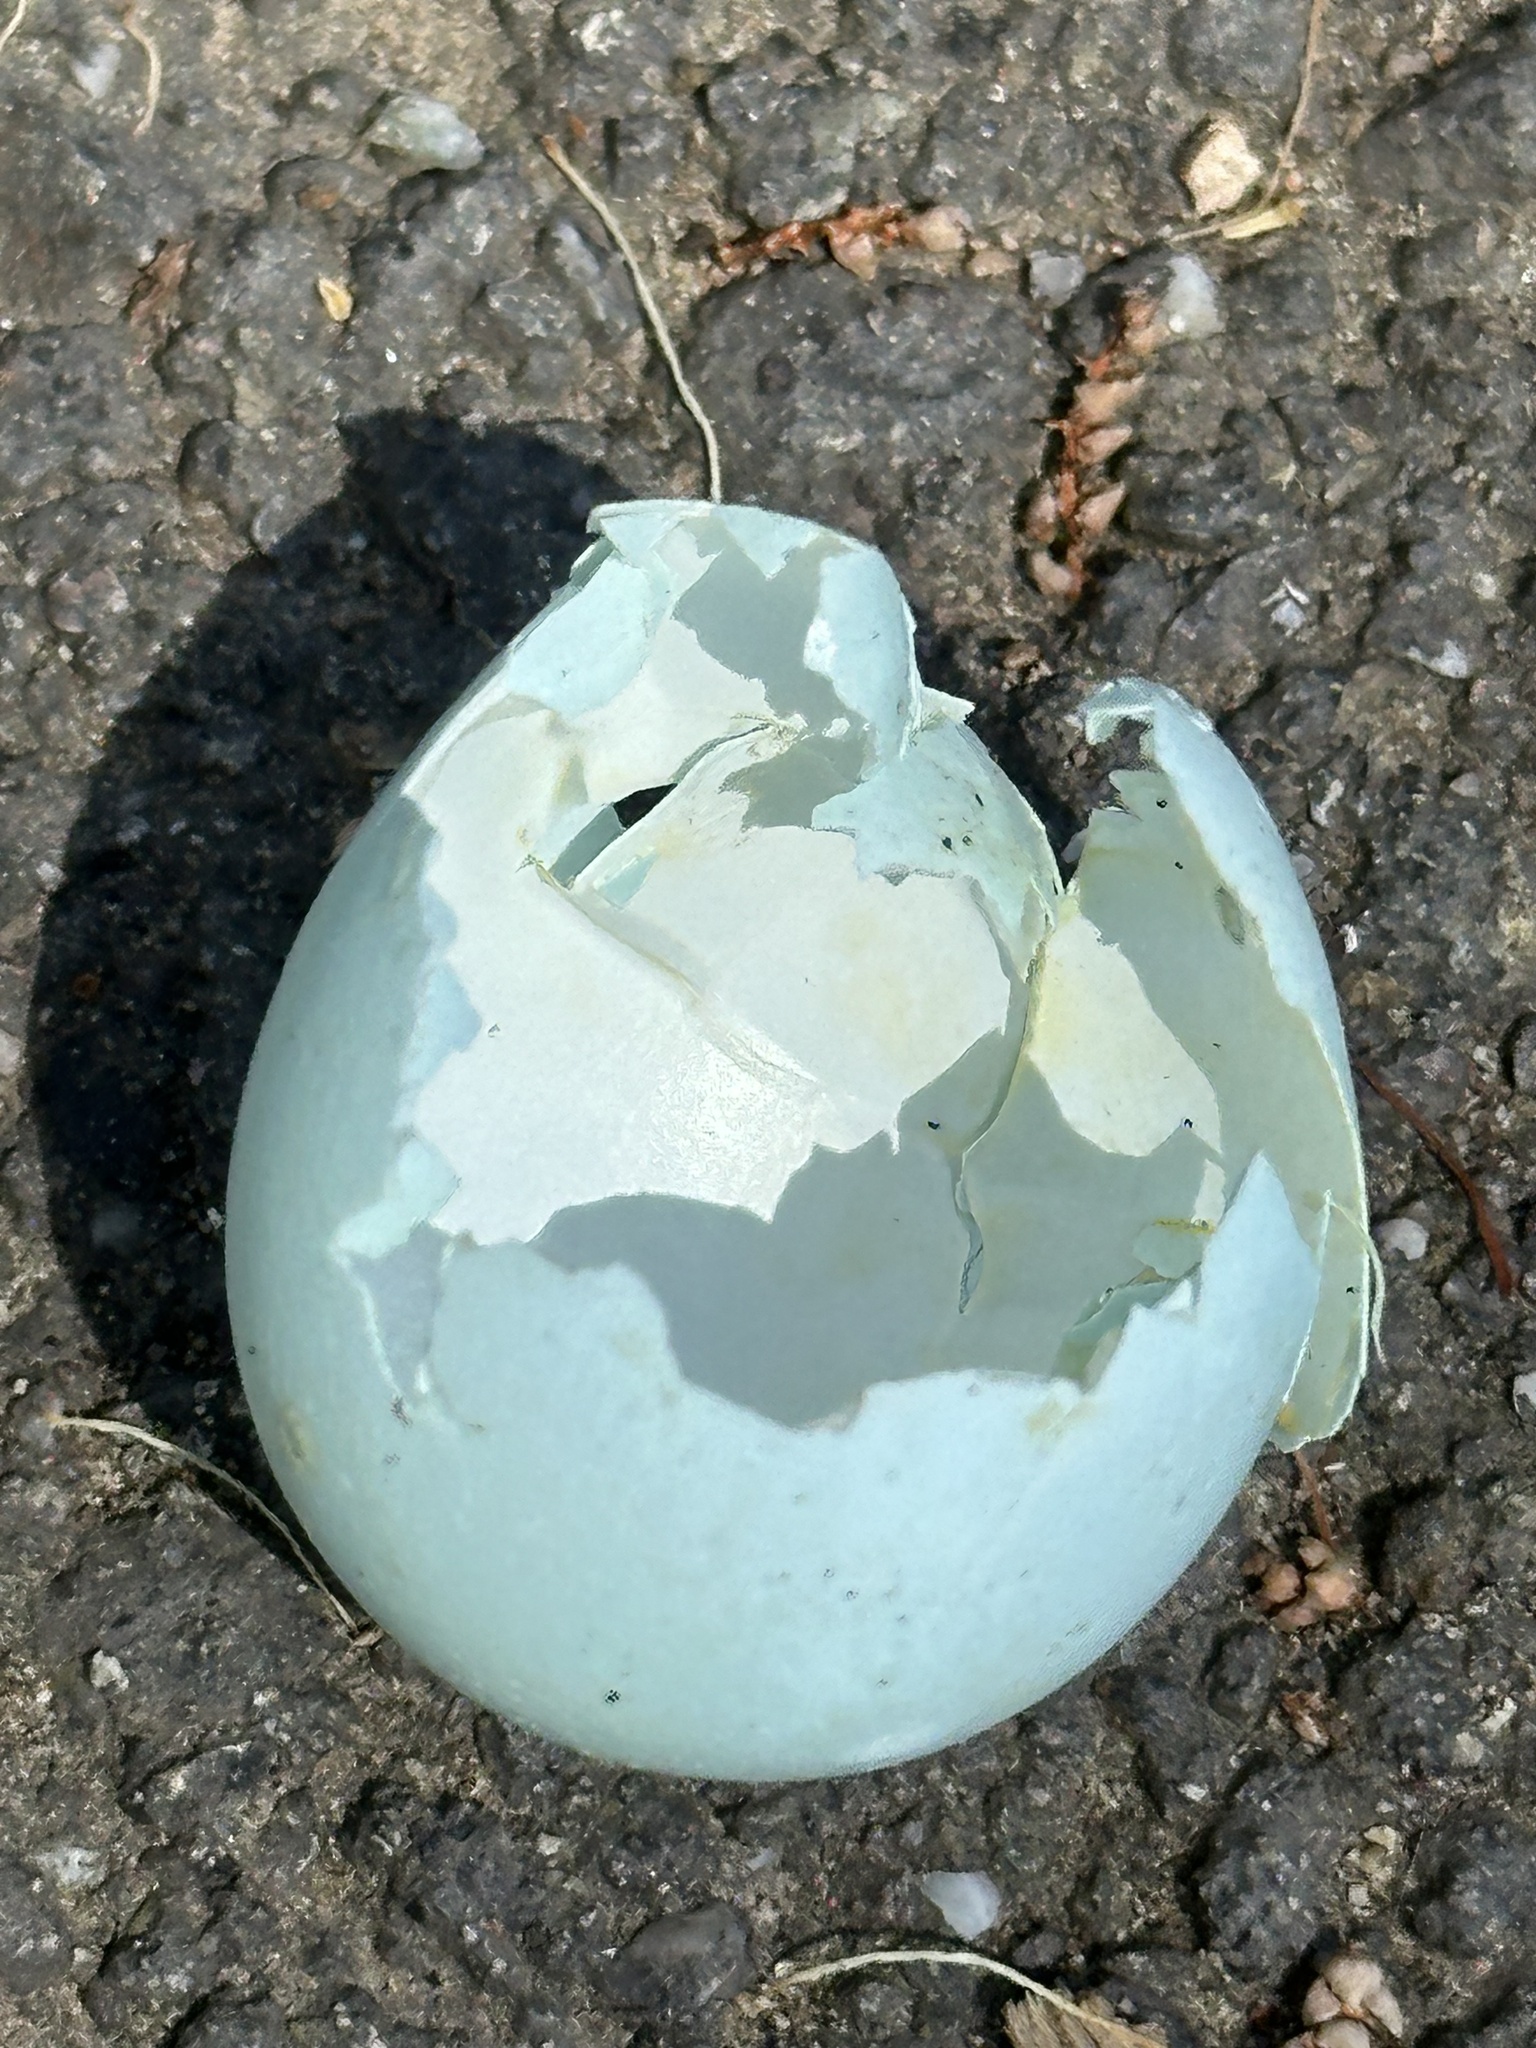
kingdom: Animalia
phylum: Chordata
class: Aves
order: Passeriformes
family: Turdidae
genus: Turdus
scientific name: Turdus migratorius
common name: American robin
